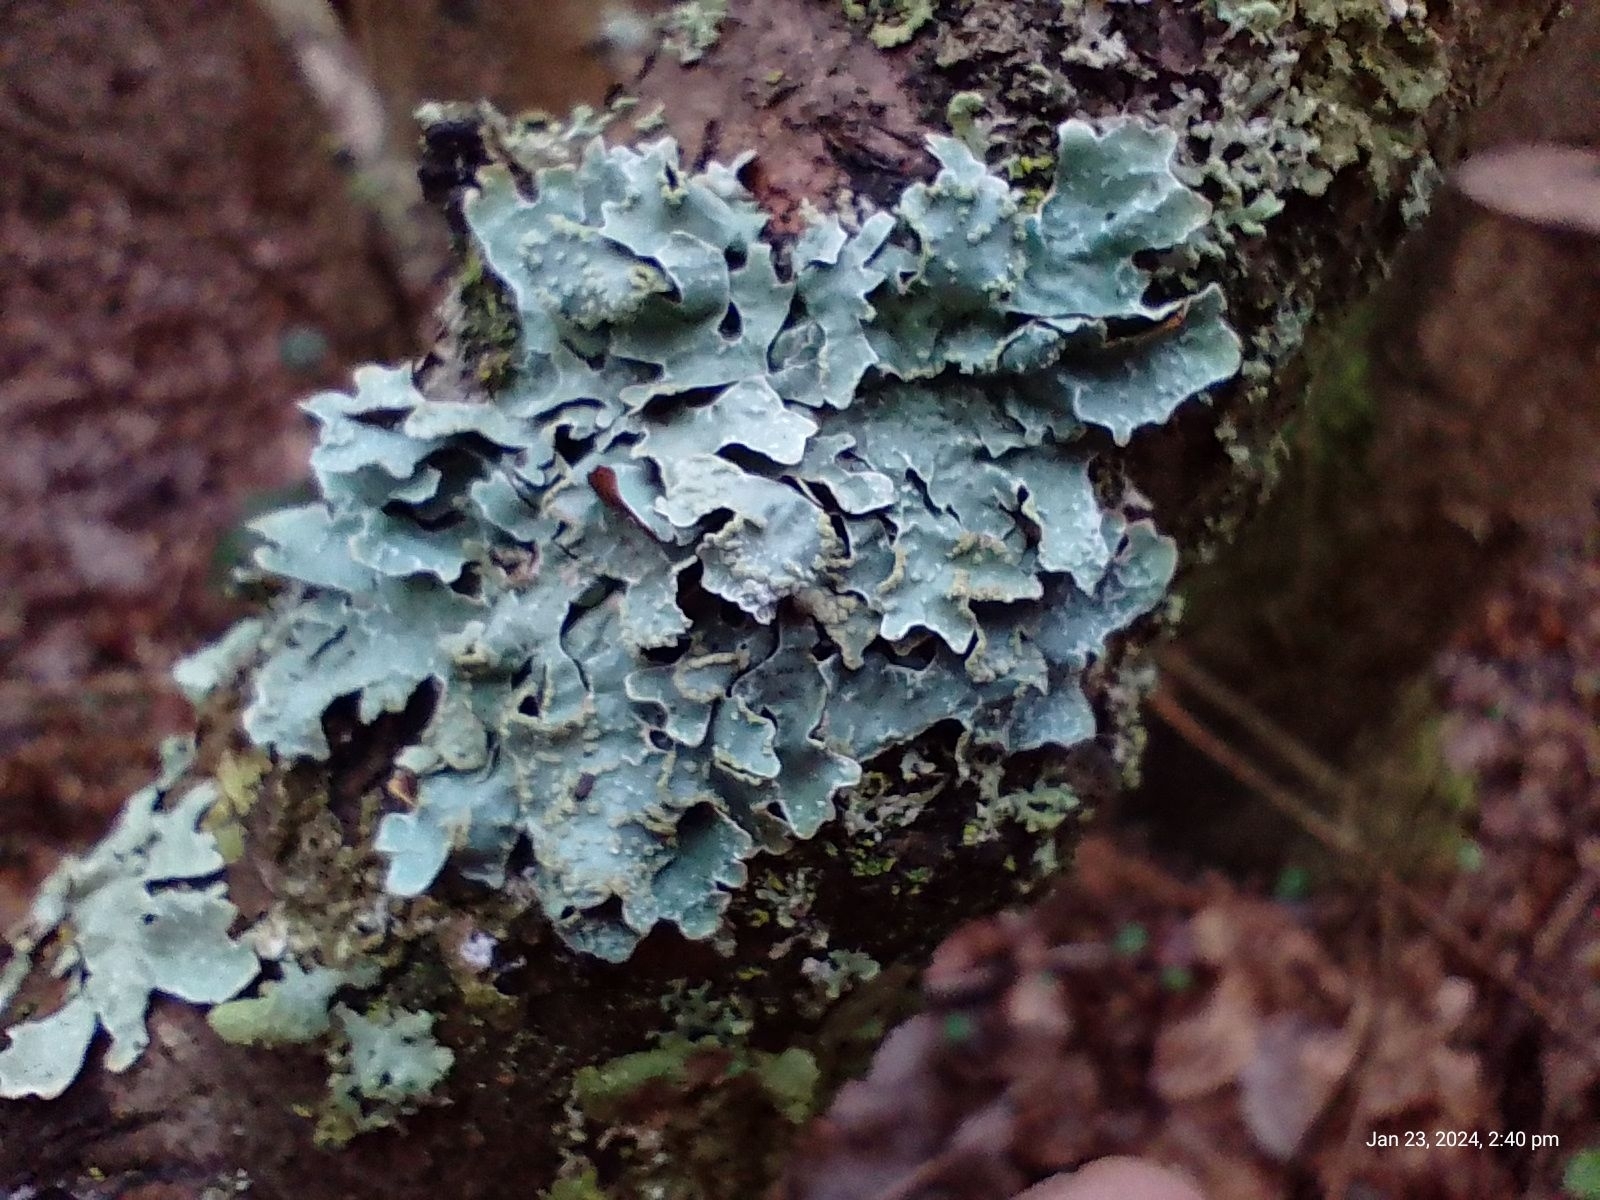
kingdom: Fungi
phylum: Ascomycota
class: Lecanoromycetes
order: Lecanorales
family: Parmeliaceae
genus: Parmelia
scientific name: Parmelia sulcata
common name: Netted shield lichen
